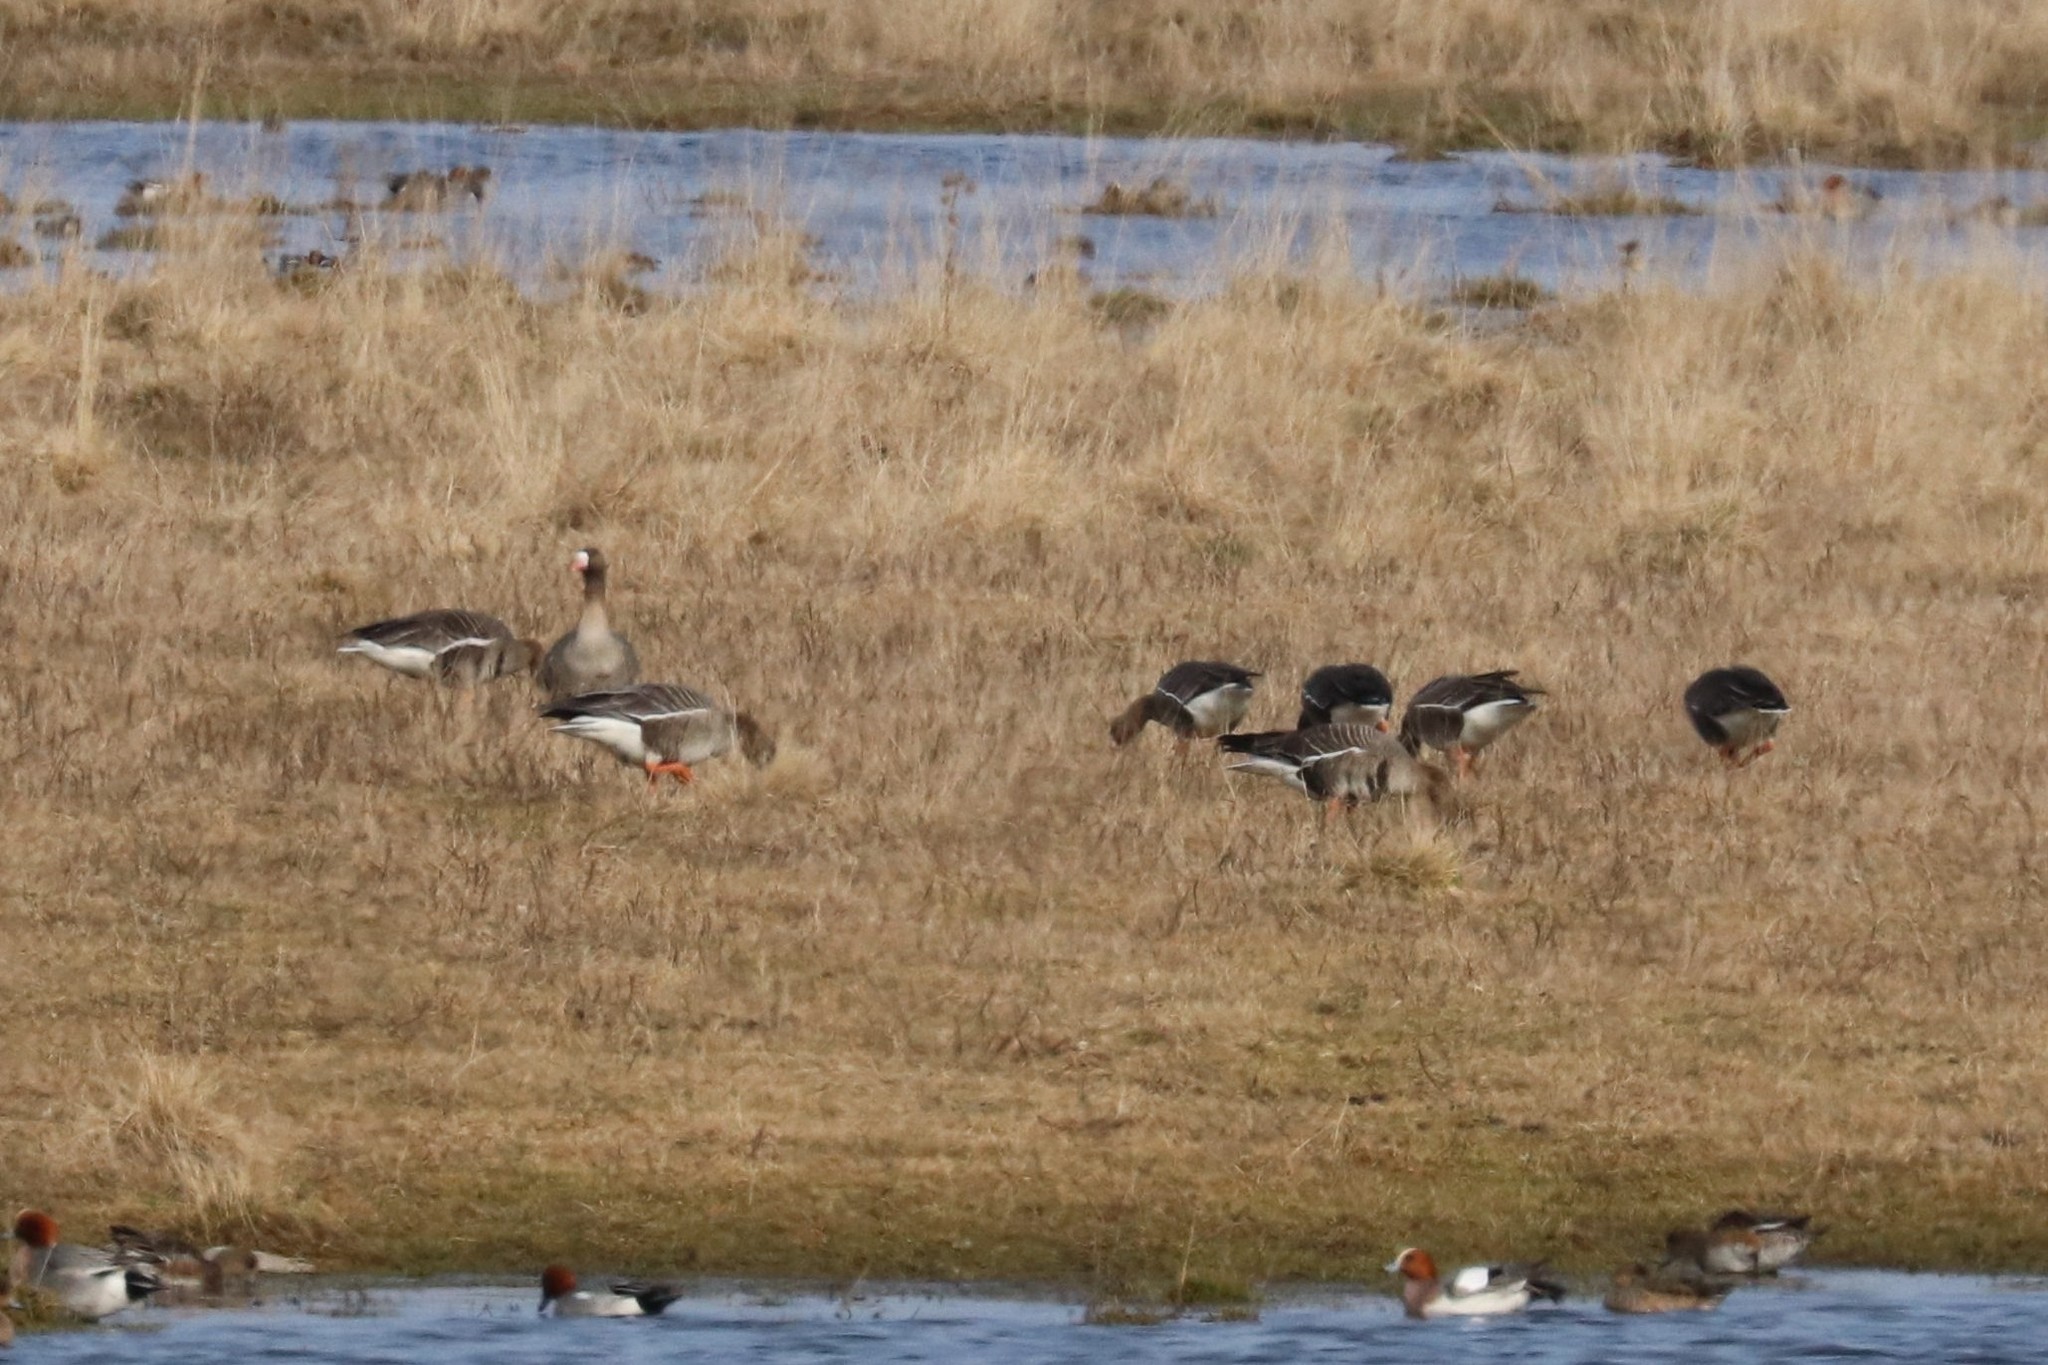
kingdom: Animalia
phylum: Chordata
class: Aves
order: Anseriformes
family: Anatidae
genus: Anser
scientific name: Anser albifrons
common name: Greater white-fronted goose
